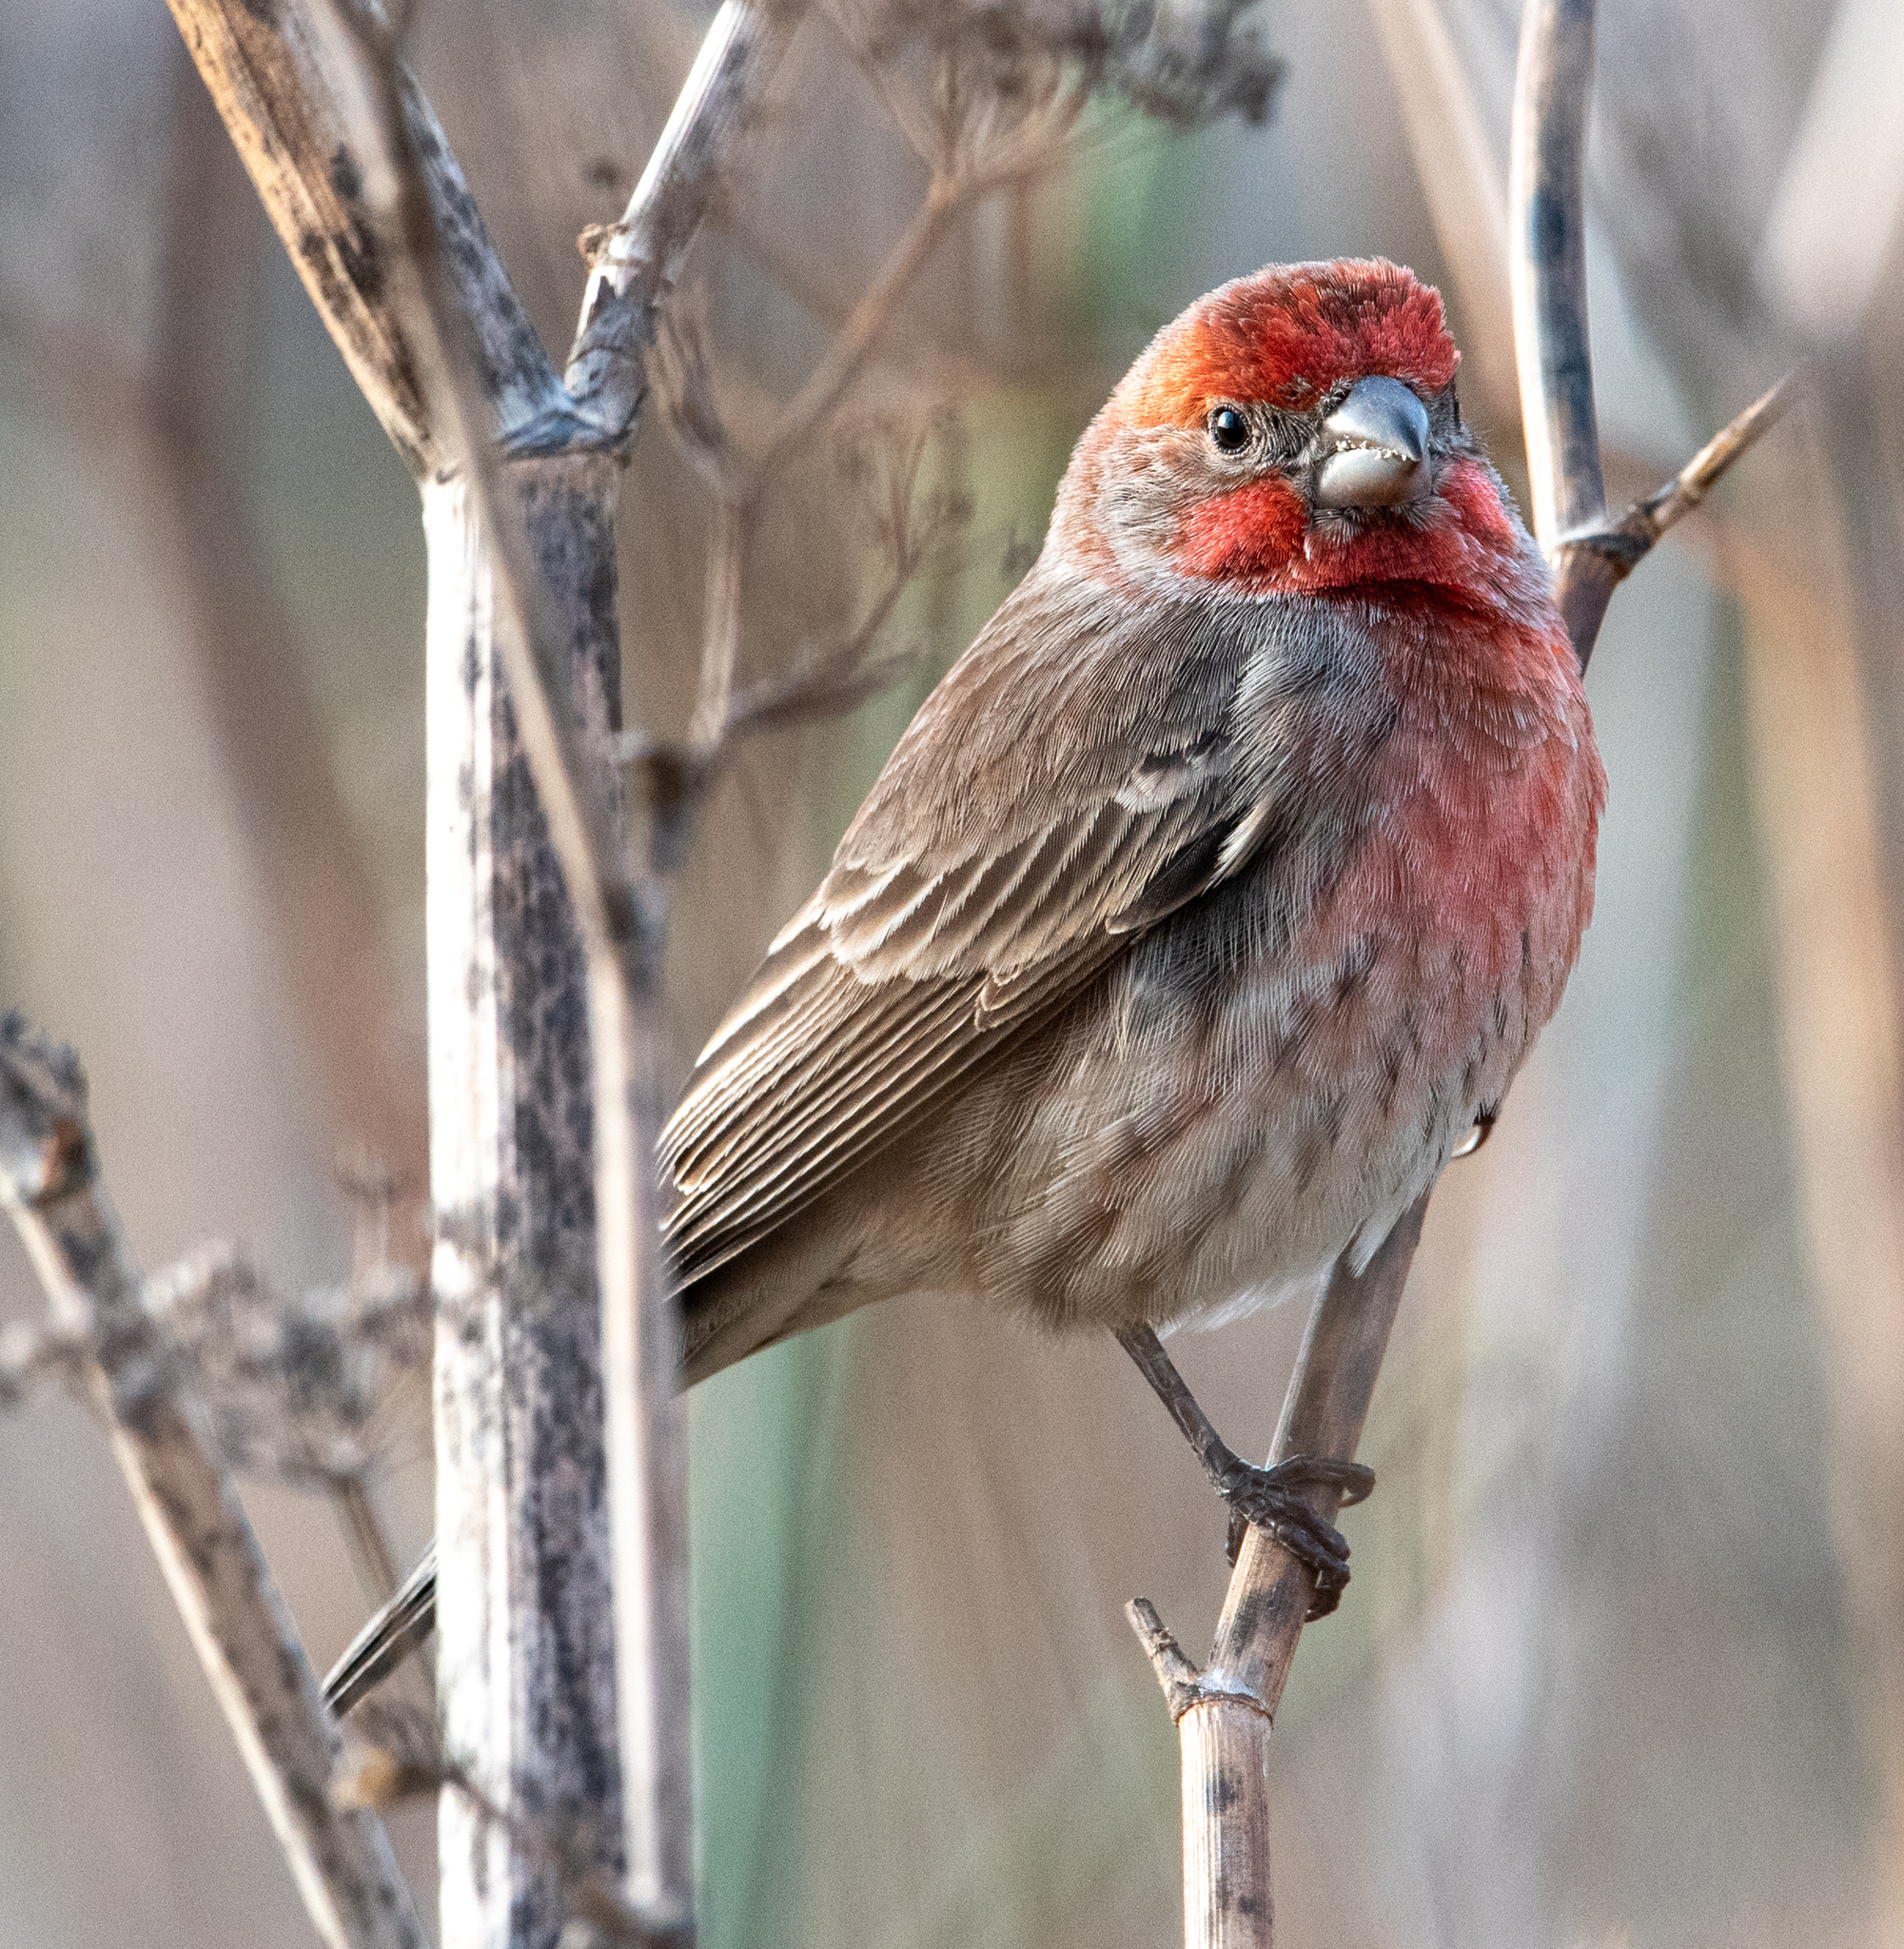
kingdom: Animalia
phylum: Chordata
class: Aves
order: Passeriformes
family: Fringillidae
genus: Haemorhous
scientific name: Haemorhous mexicanus
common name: House finch
